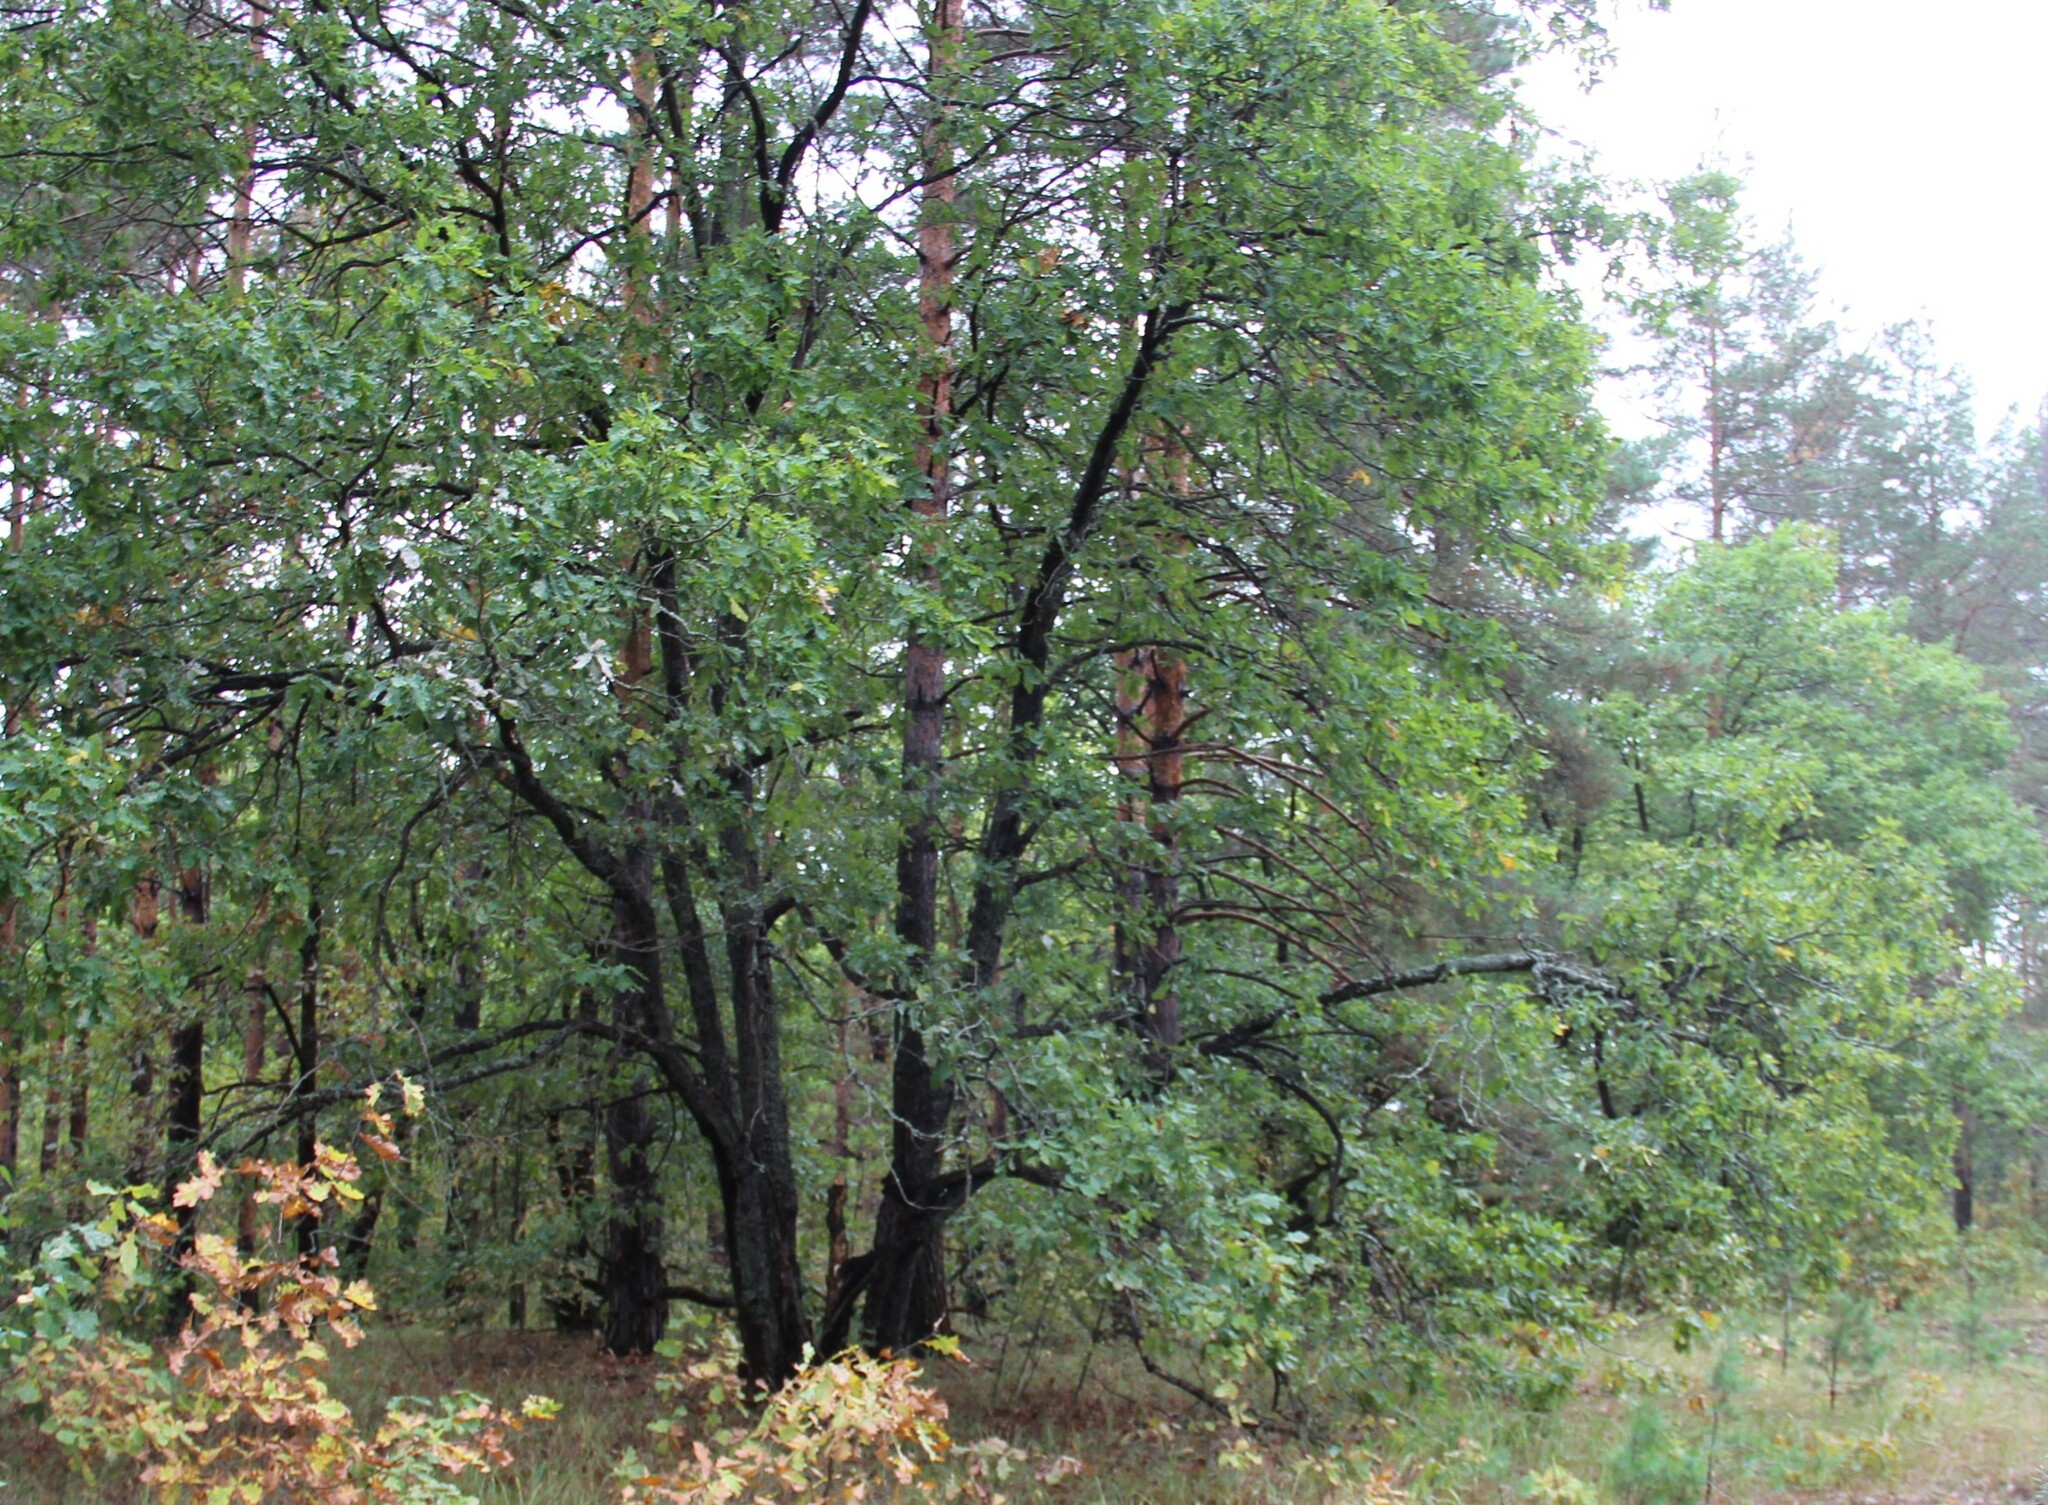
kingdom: Plantae
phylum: Tracheophyta
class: Magnoliopsida
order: Fagales
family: Fagaceae
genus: Quercus
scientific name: Quercus robur
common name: Pedunculate oak
